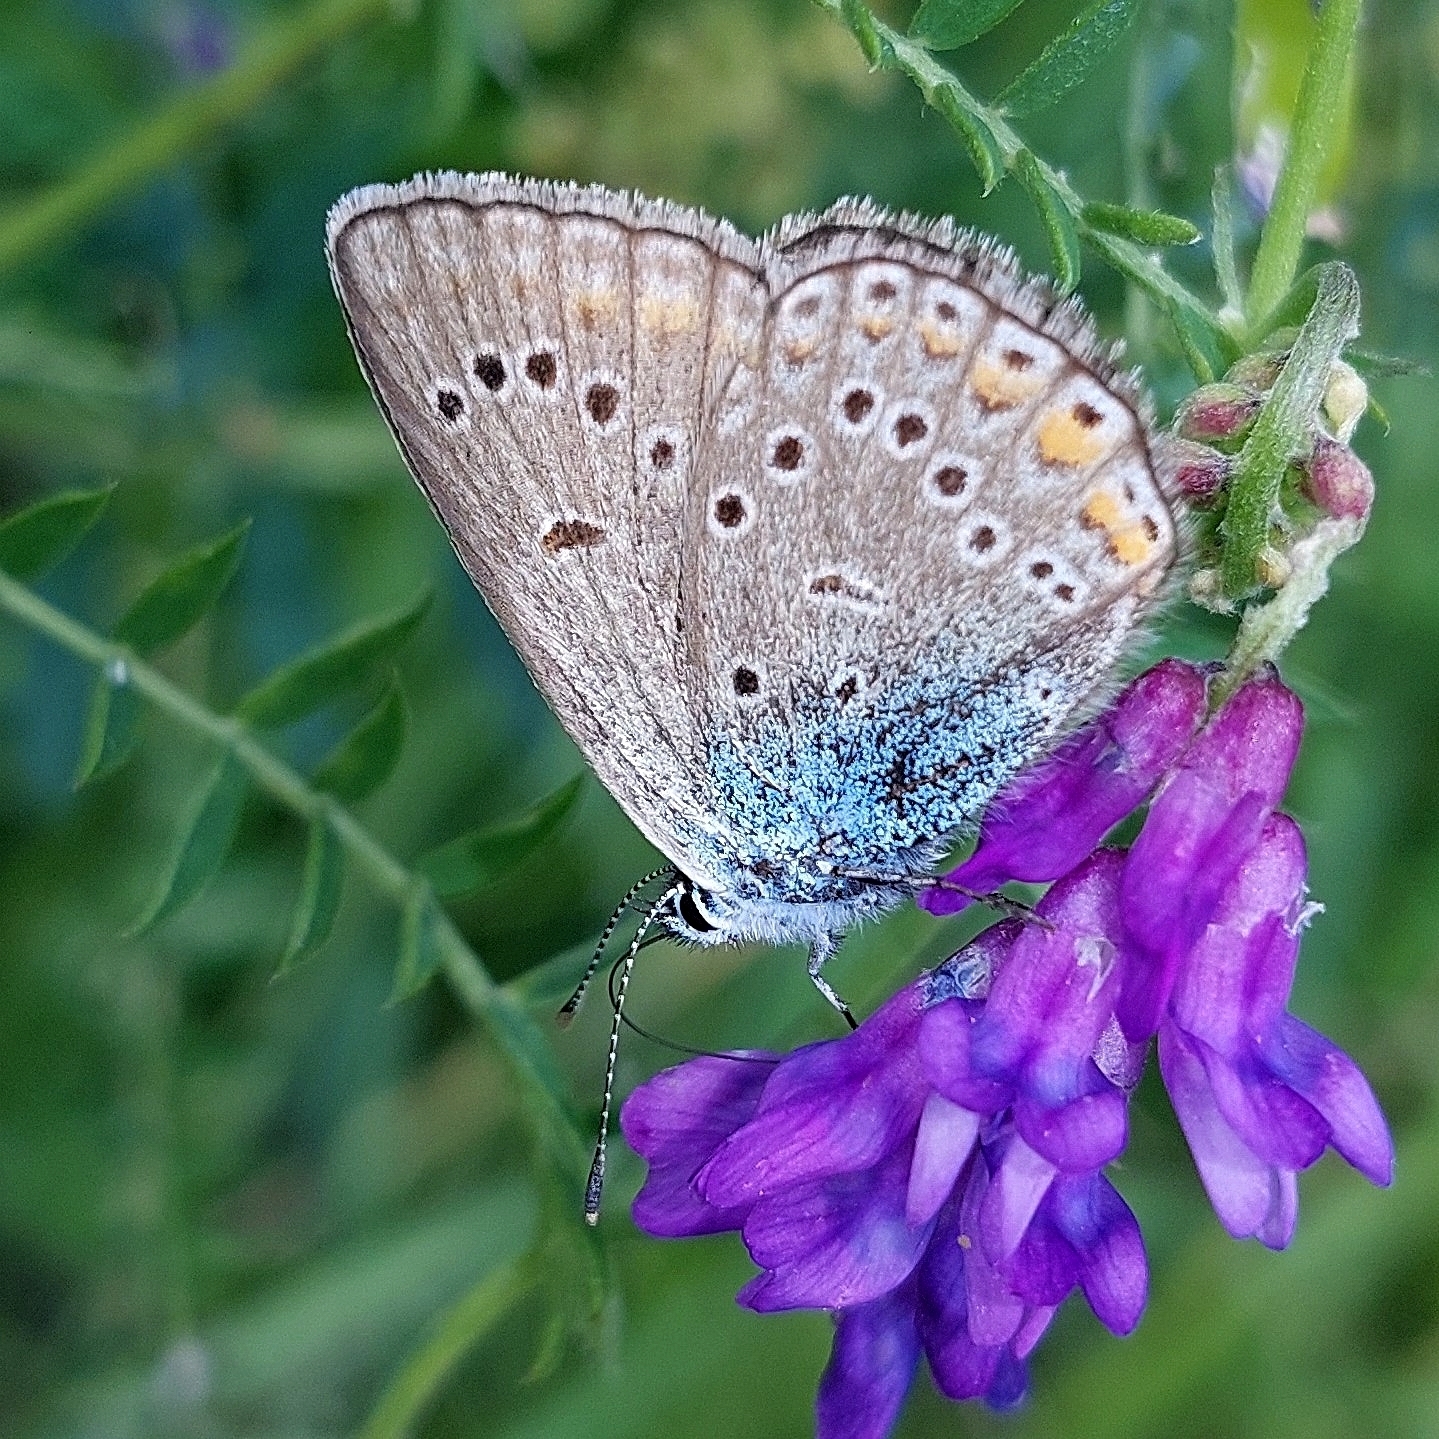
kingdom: Animalia
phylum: Arthropoda
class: Insecta
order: Lepidoptera
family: Lycaenidae
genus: Plebejus
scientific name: Plebejus amanda
